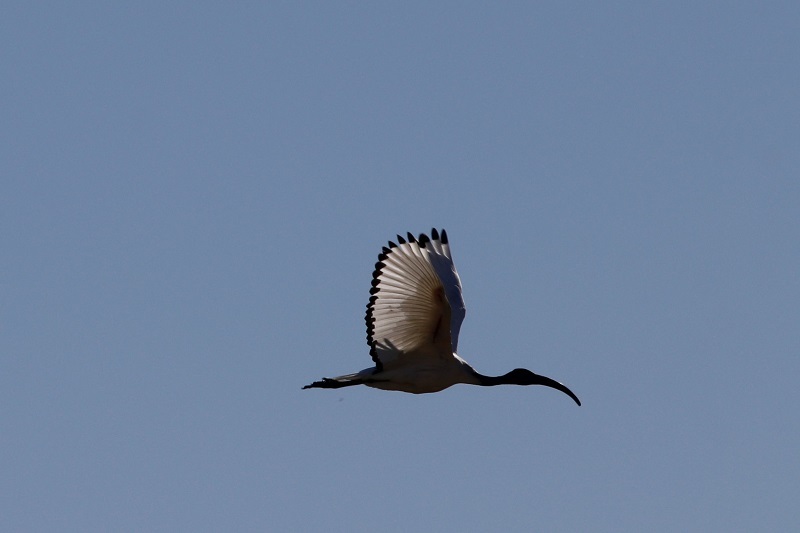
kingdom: Animalia
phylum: Chordata
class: Aves
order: Pelecaniformes
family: Threskiornithidae
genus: Threskiornis
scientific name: Threskiornis aethiopicus
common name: Sacred ibis
